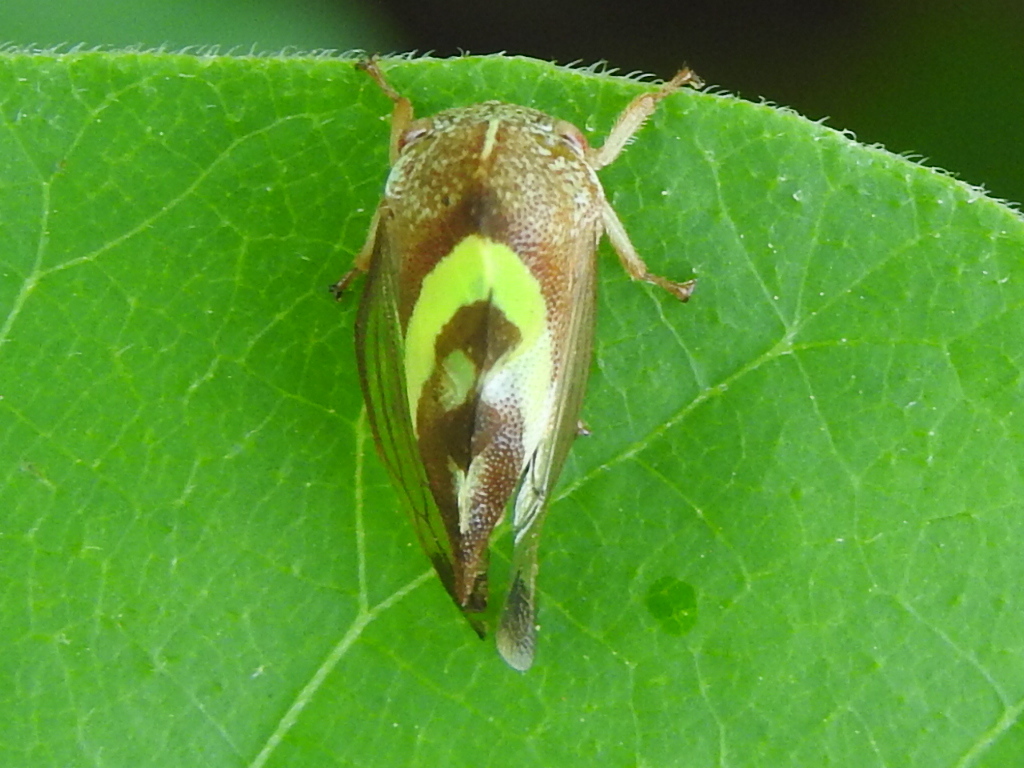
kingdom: Animalia
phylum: Arthropoda
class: Insecta
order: Hemiptera
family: Membracidae
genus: Smilia
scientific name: Smilia camelus
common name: Camel treehopper
